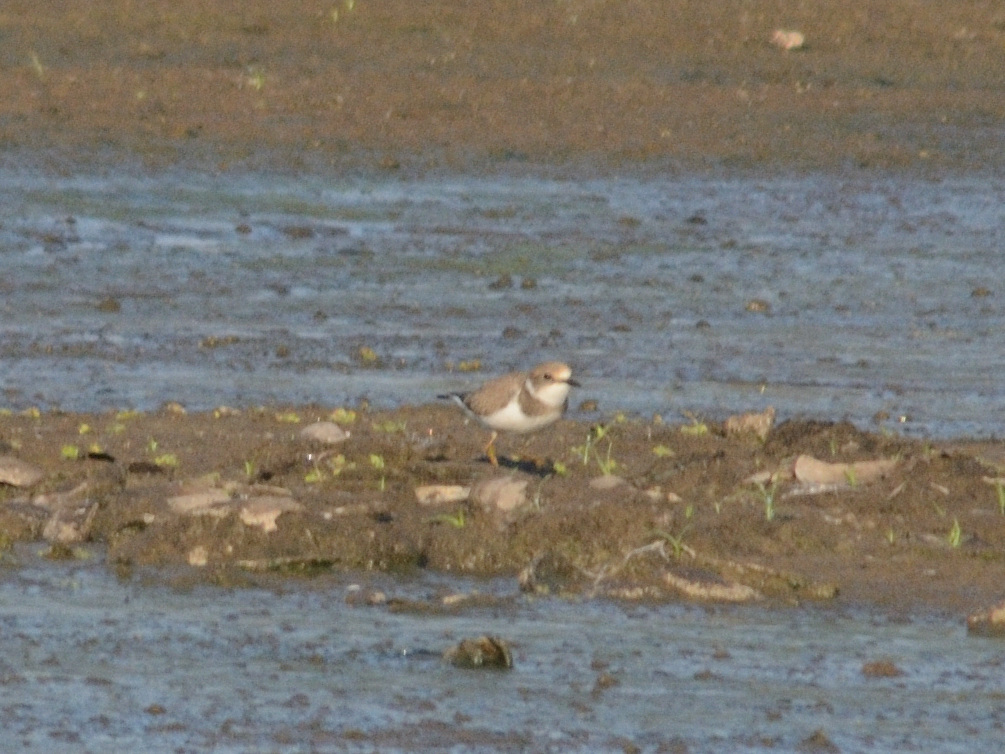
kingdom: Animalia
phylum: Chordata
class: Aves
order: Charadriiformes
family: Charadriidae
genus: Charadrius
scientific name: Charadrius dubius
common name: Little ringed plover
